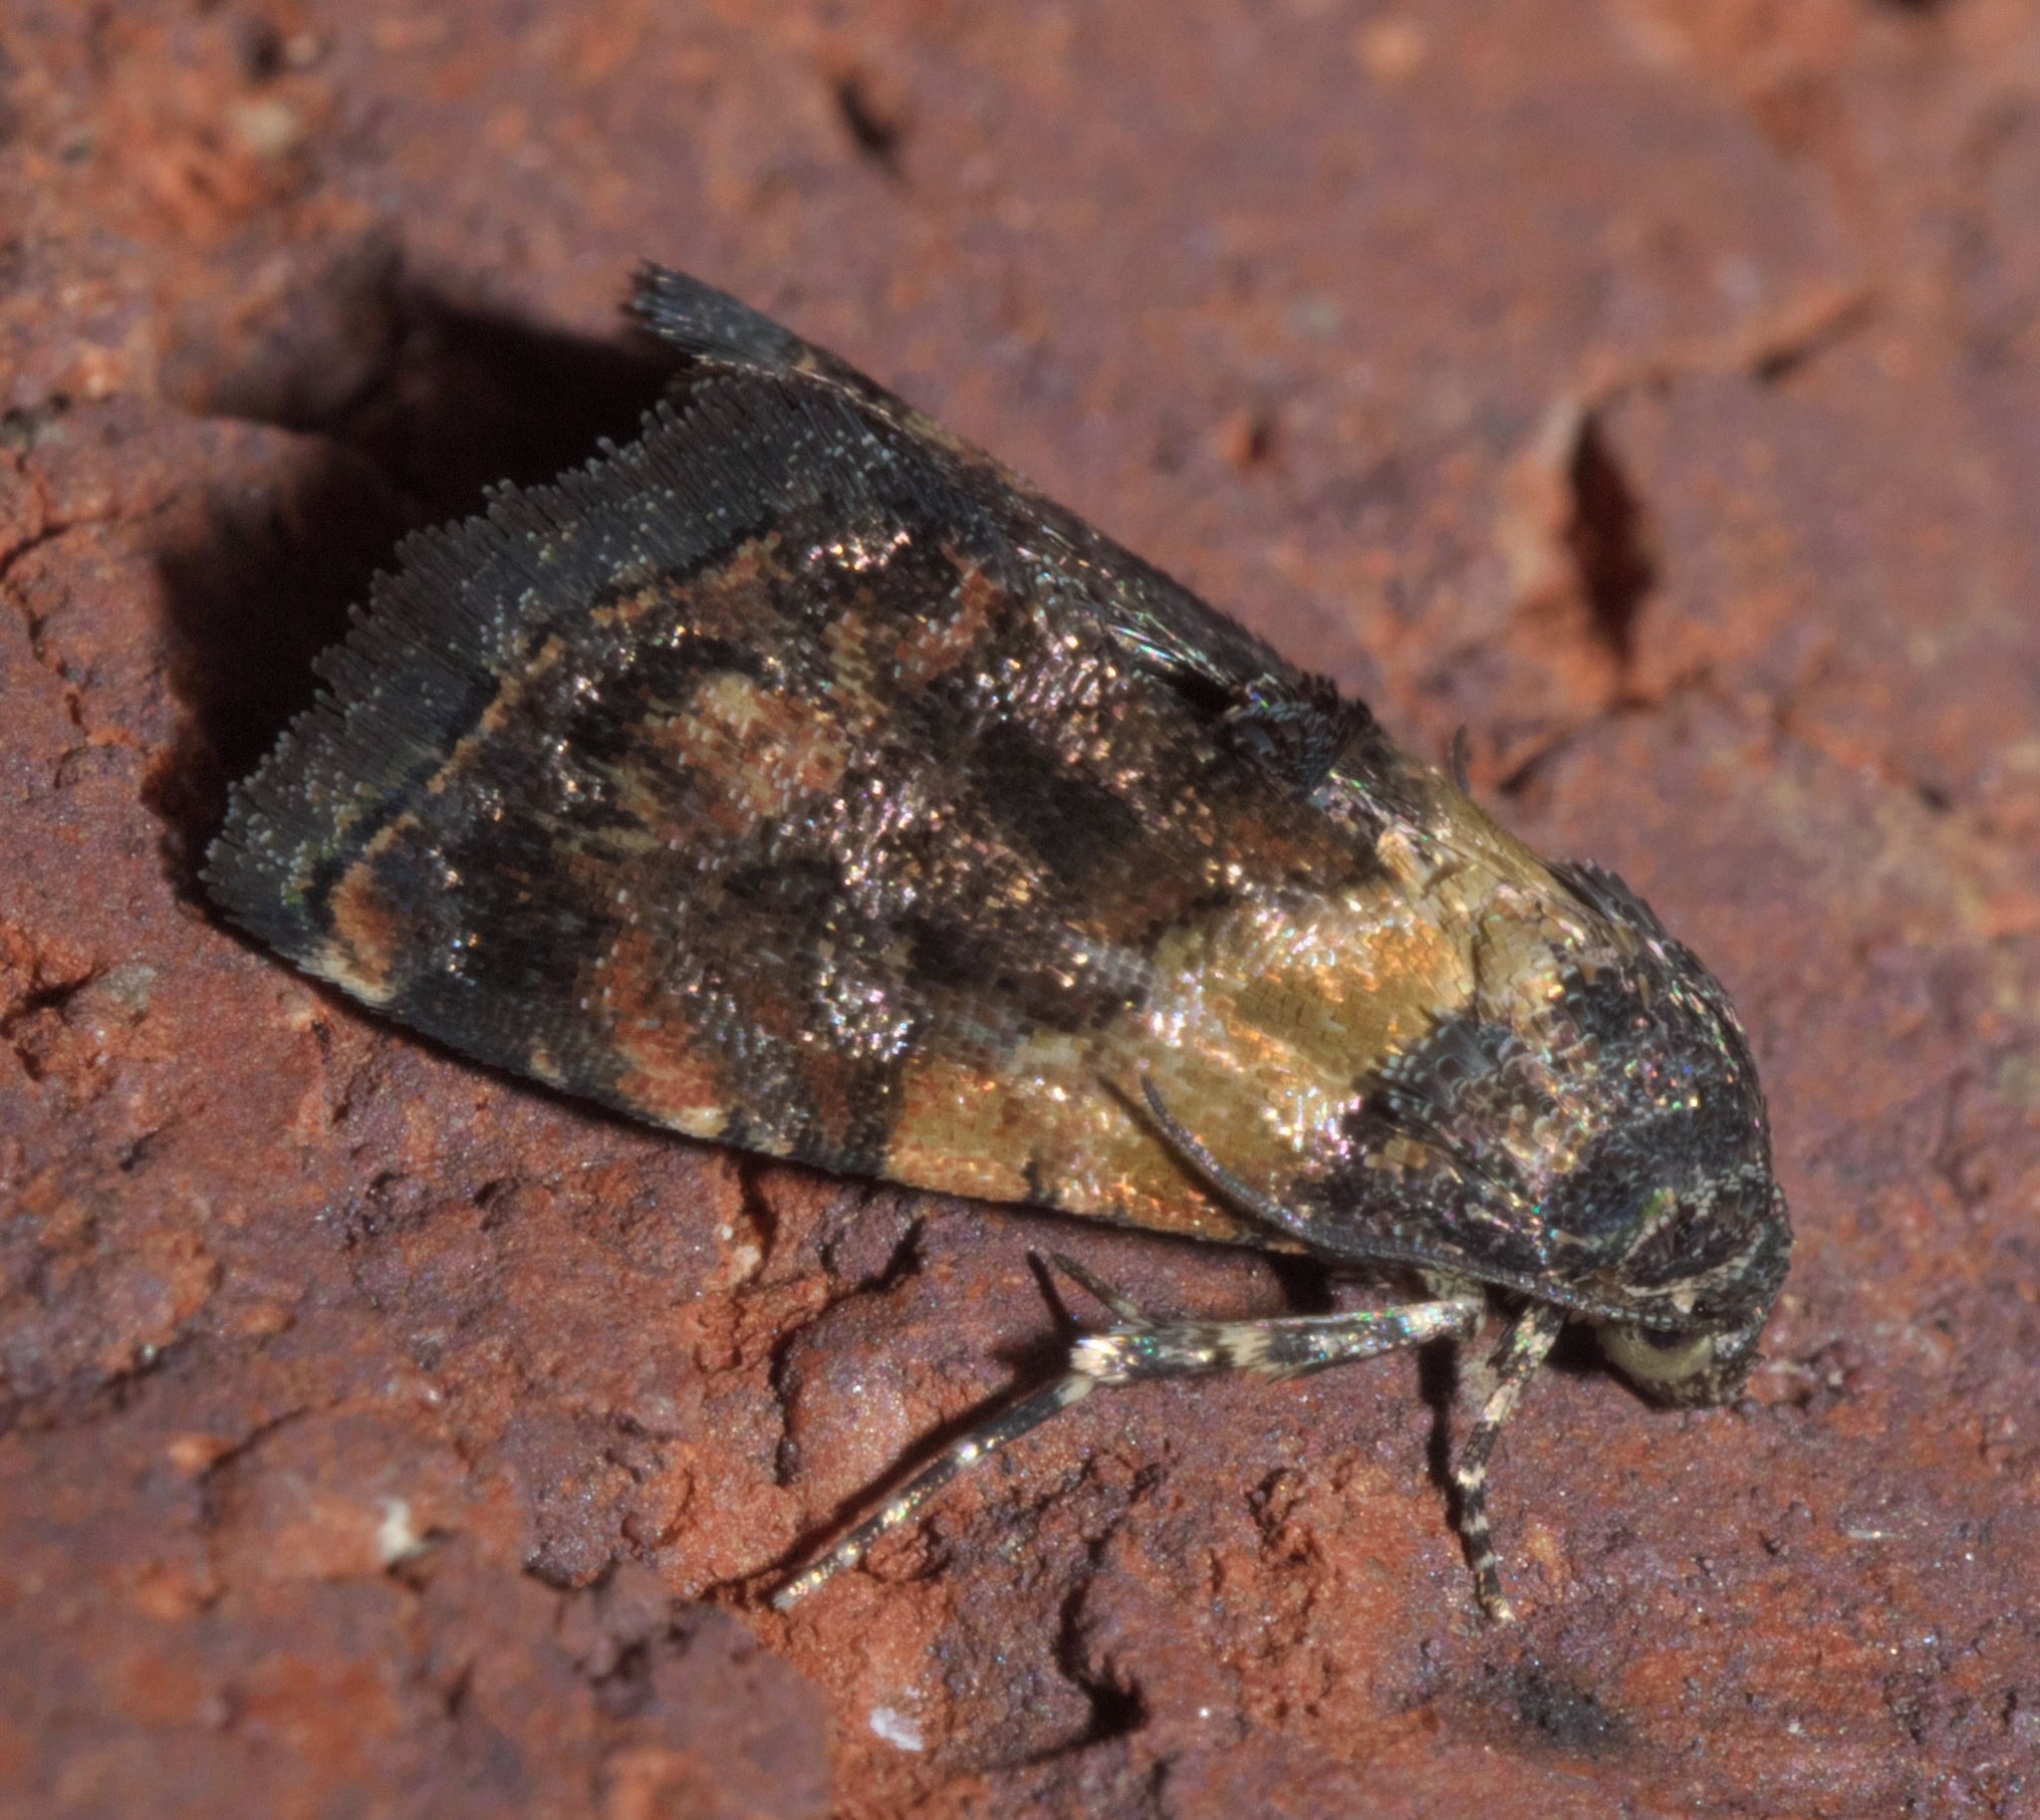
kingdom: Animalia
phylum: Arthropoda
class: Insecta
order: Lepidoptera
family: Noctuidae
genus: Tripudia
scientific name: Tripudia balteata
